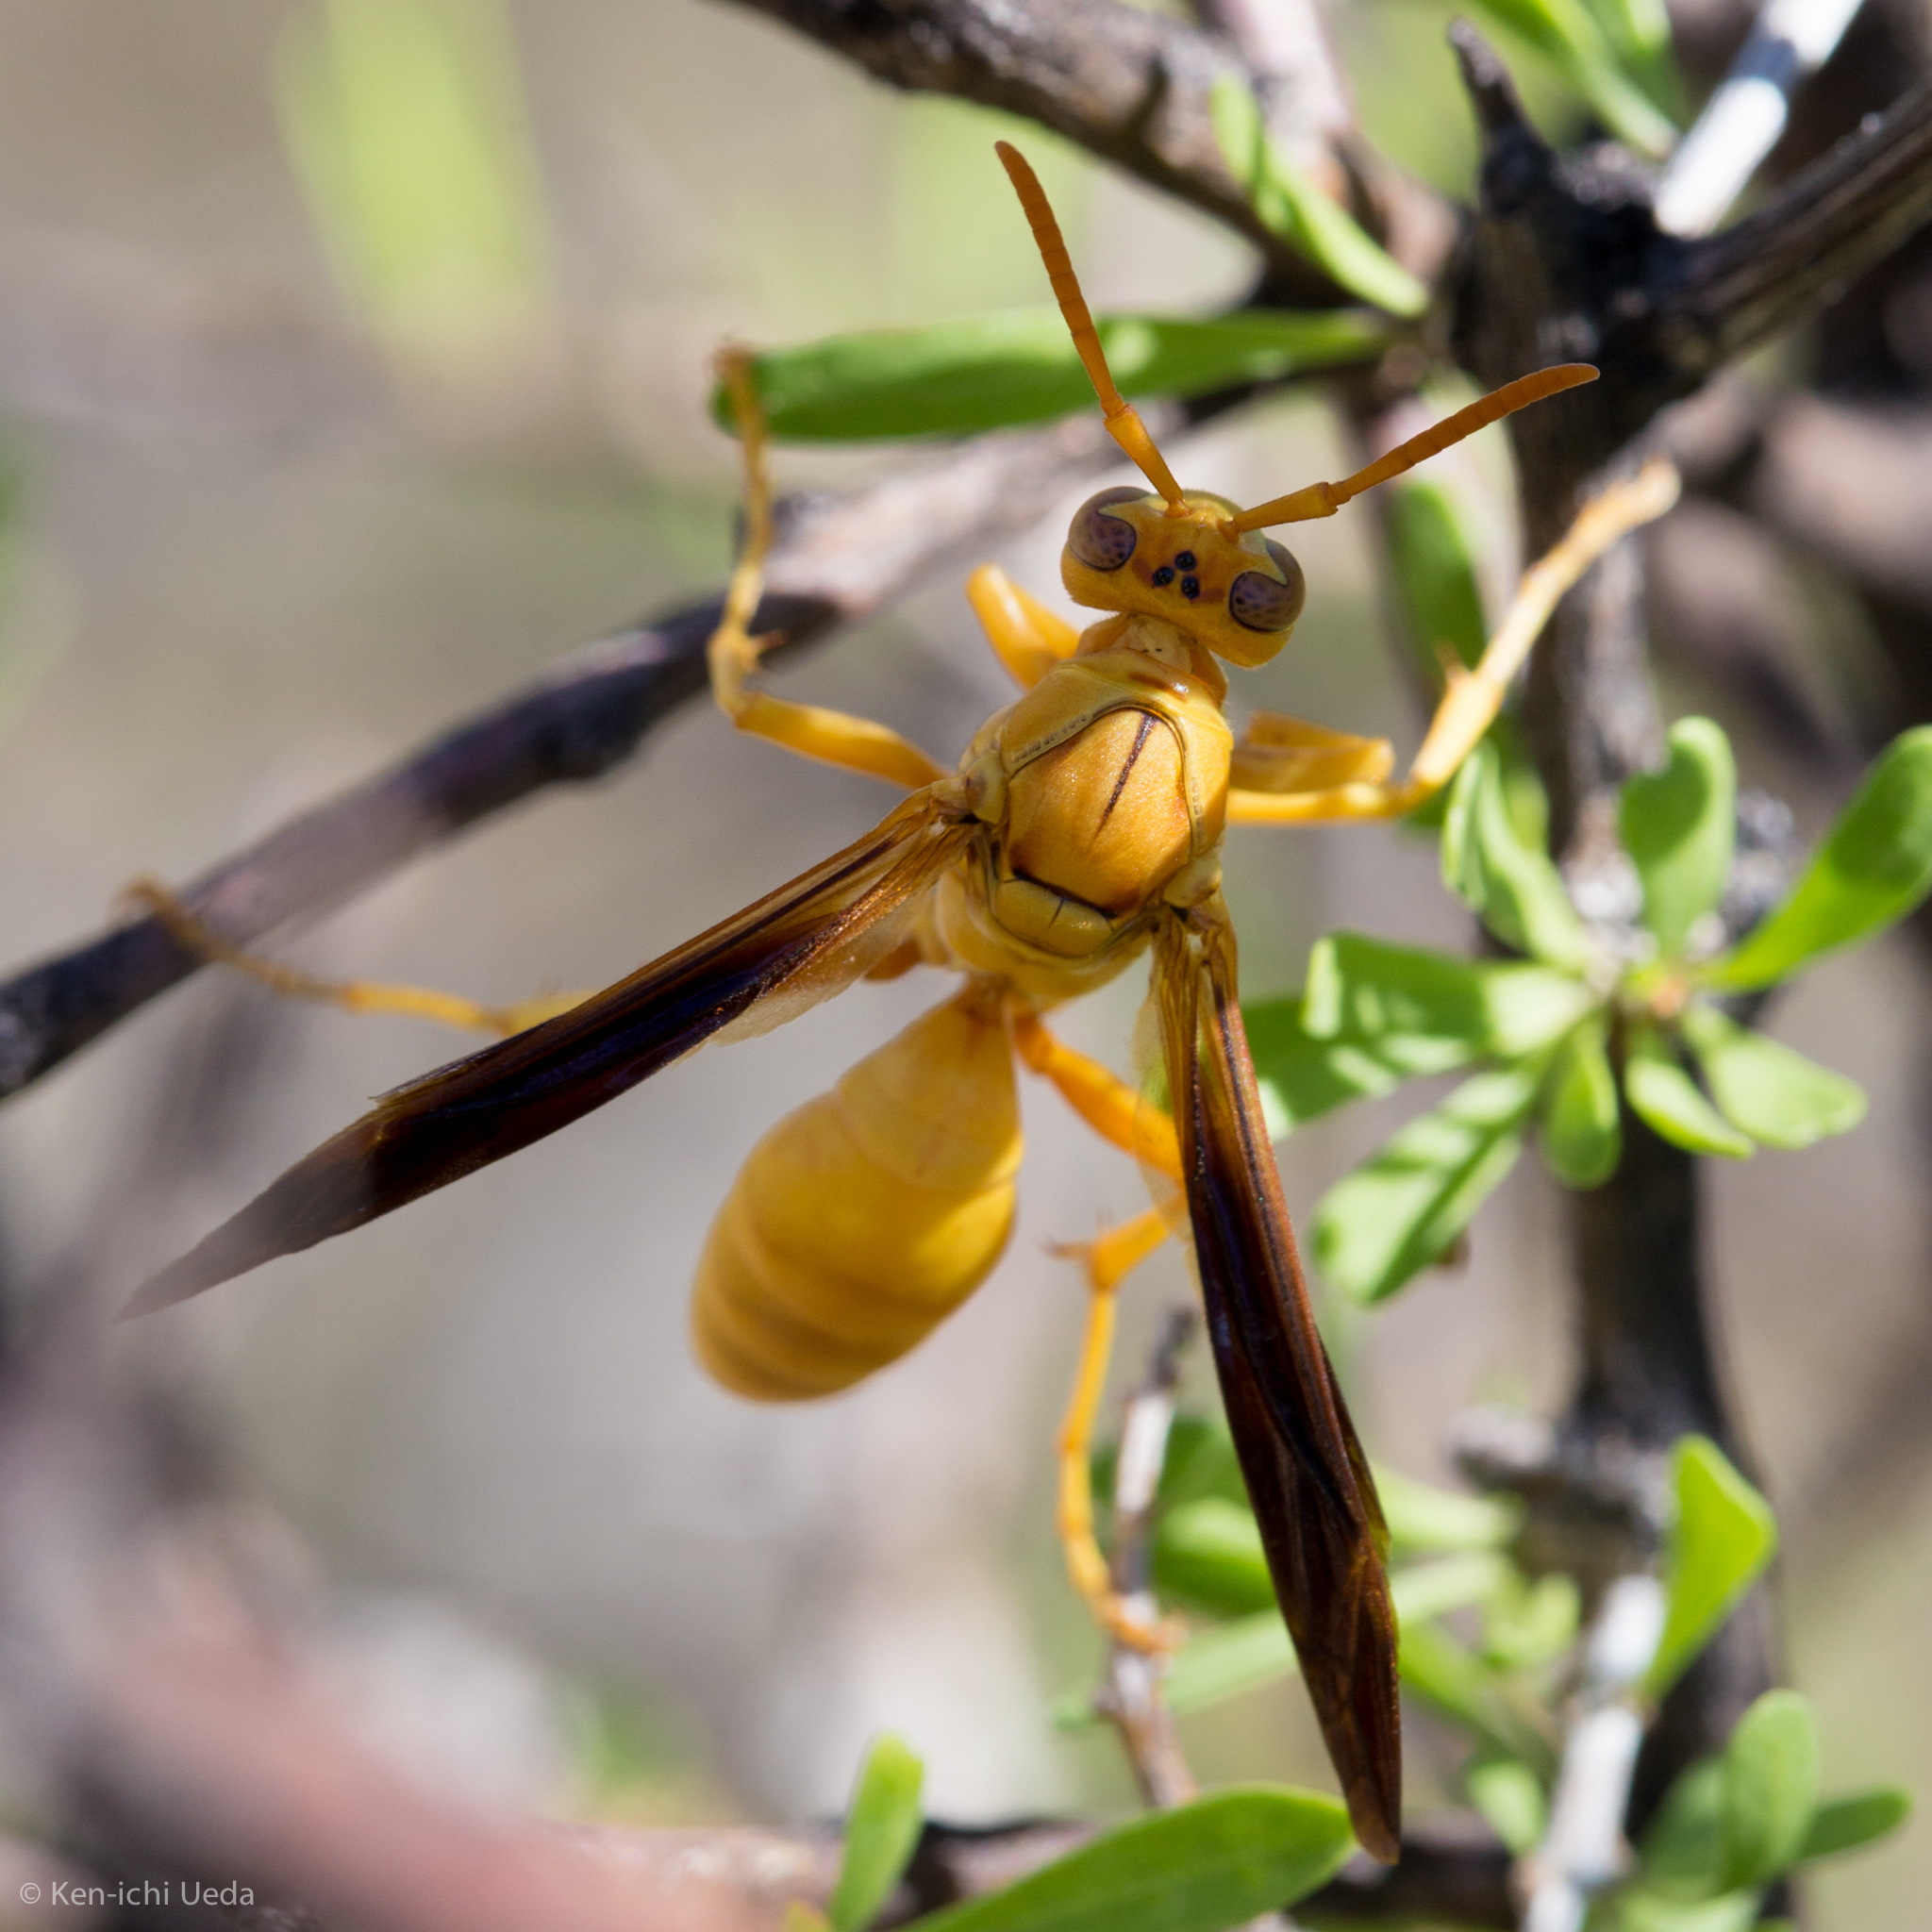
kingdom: Animalia
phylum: Arthropoda
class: Insecta
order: Hymenoptera
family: Eumenidae
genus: Polistes
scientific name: Polistes flavus
